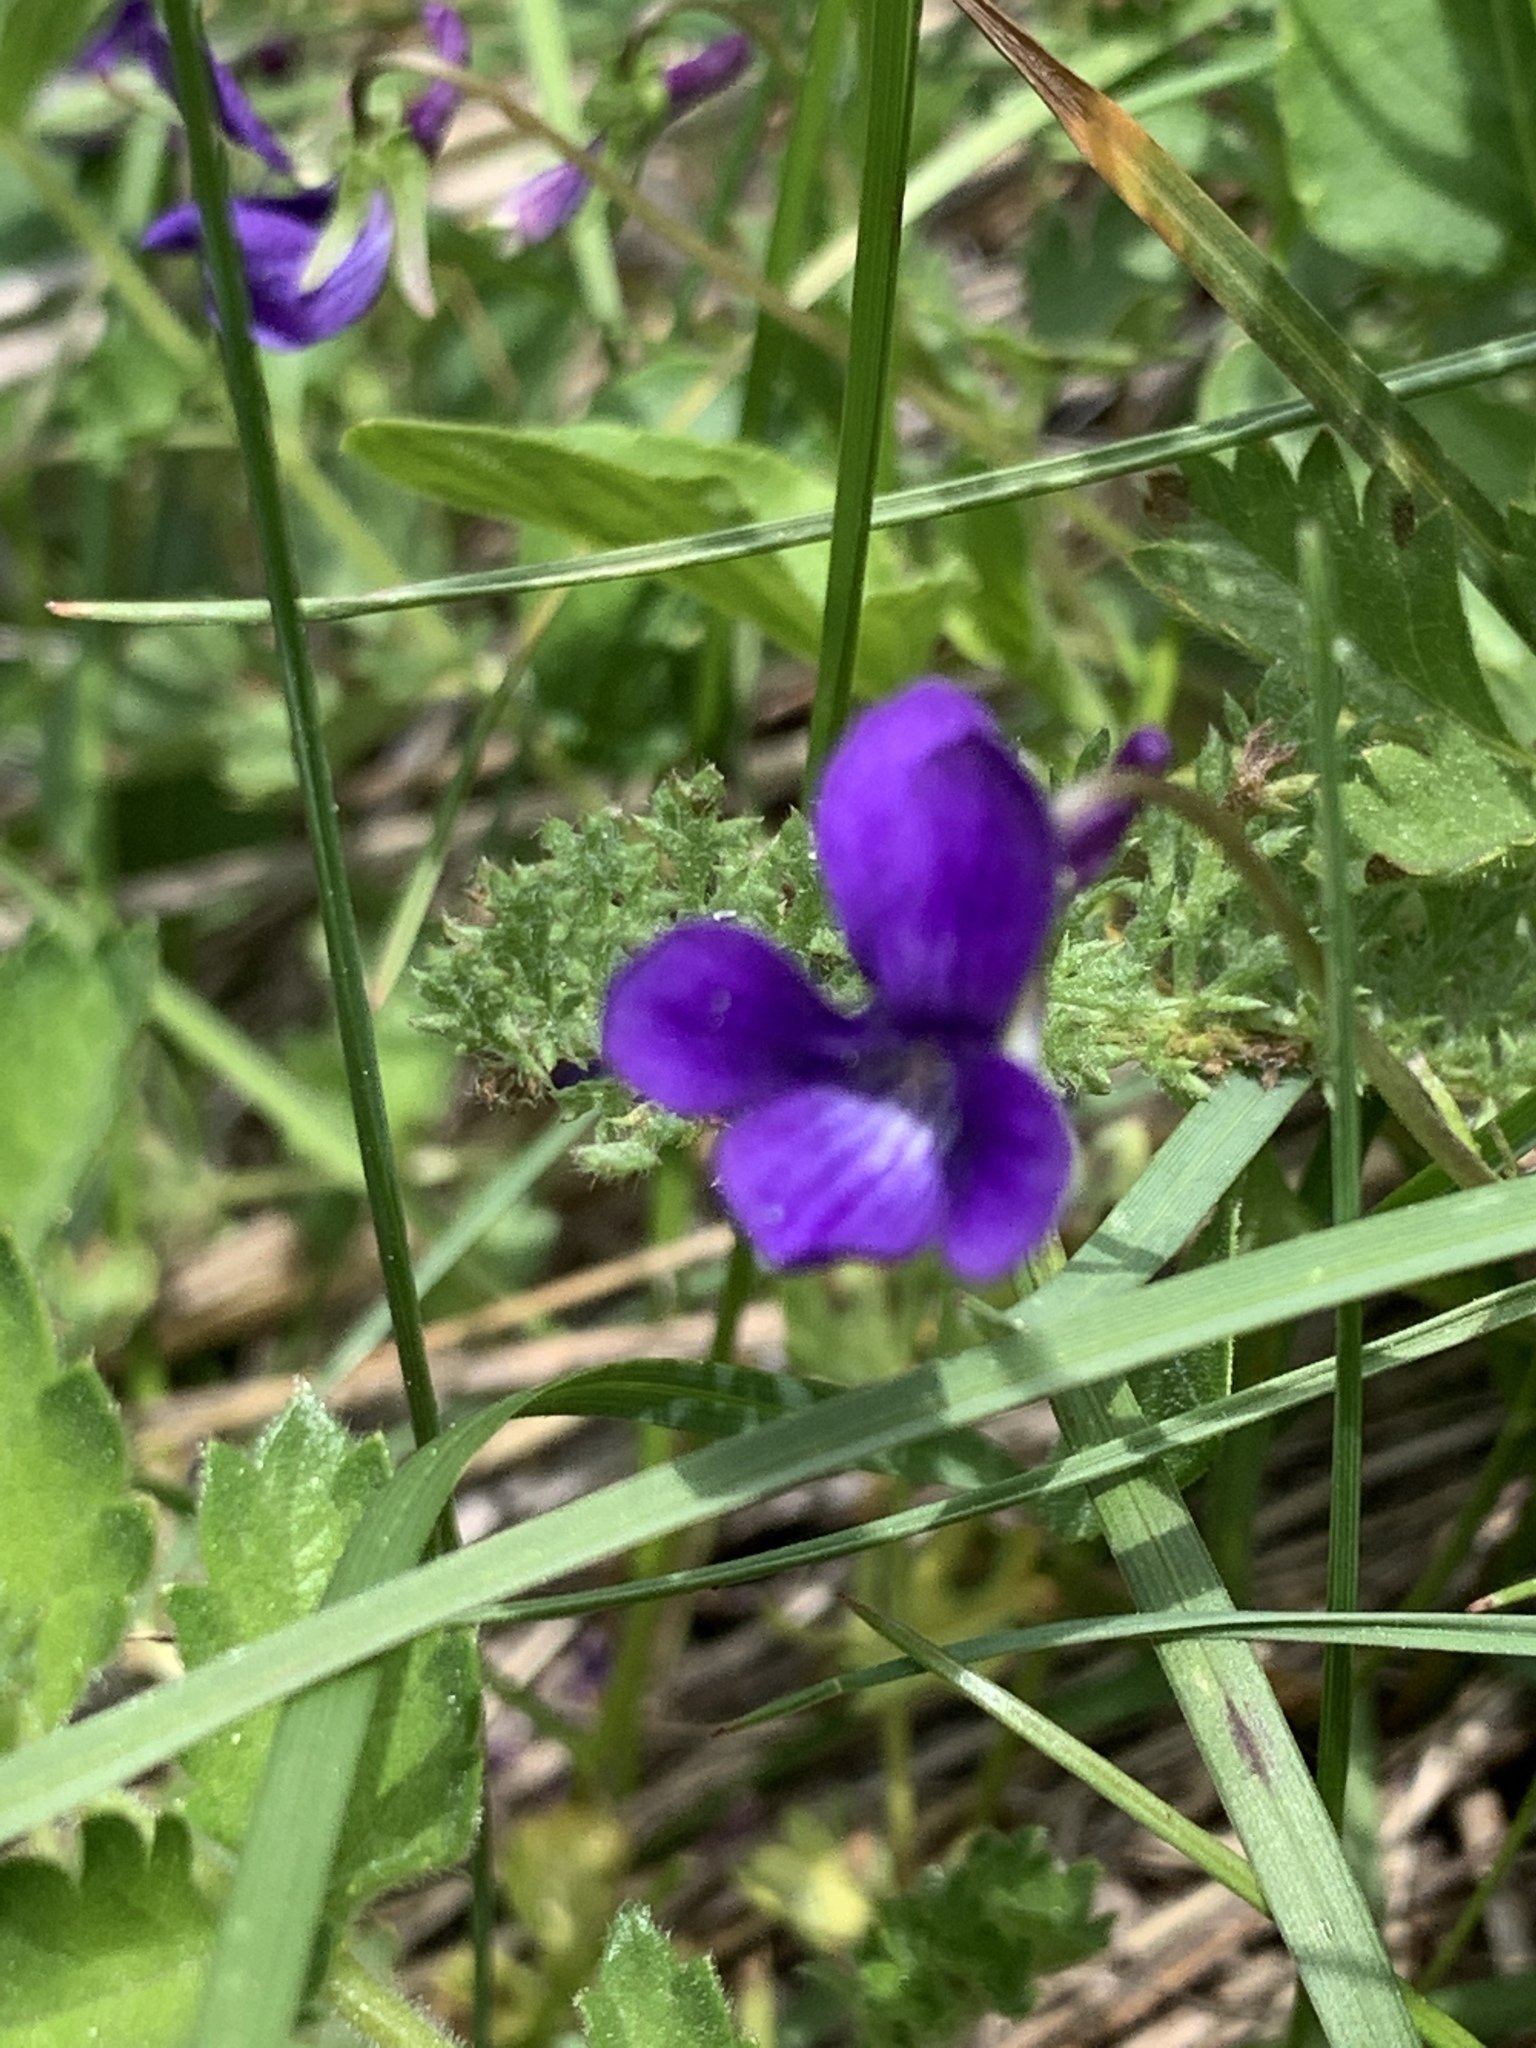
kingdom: Plantae
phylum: Tracheophyta
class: Magnoliopsida
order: Malpighiales
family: Violaceae
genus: Viola
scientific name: Viola adunca
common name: Sand violet
